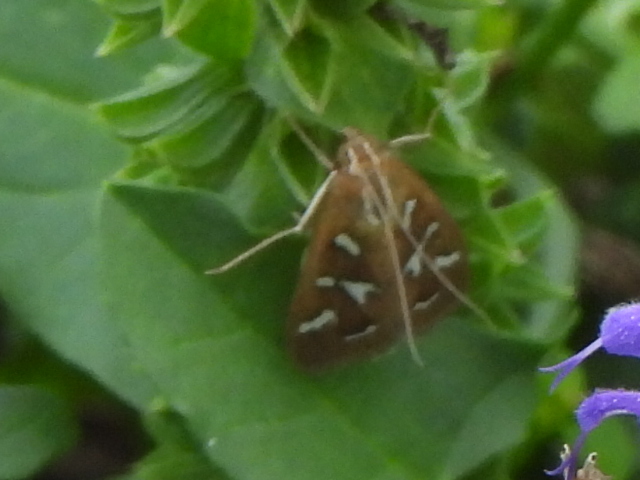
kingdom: Animalia
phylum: Arthropoda
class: Insecta
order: Lepidoptera
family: Crambidae
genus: Diastictis
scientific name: Diastictis fracturalis
